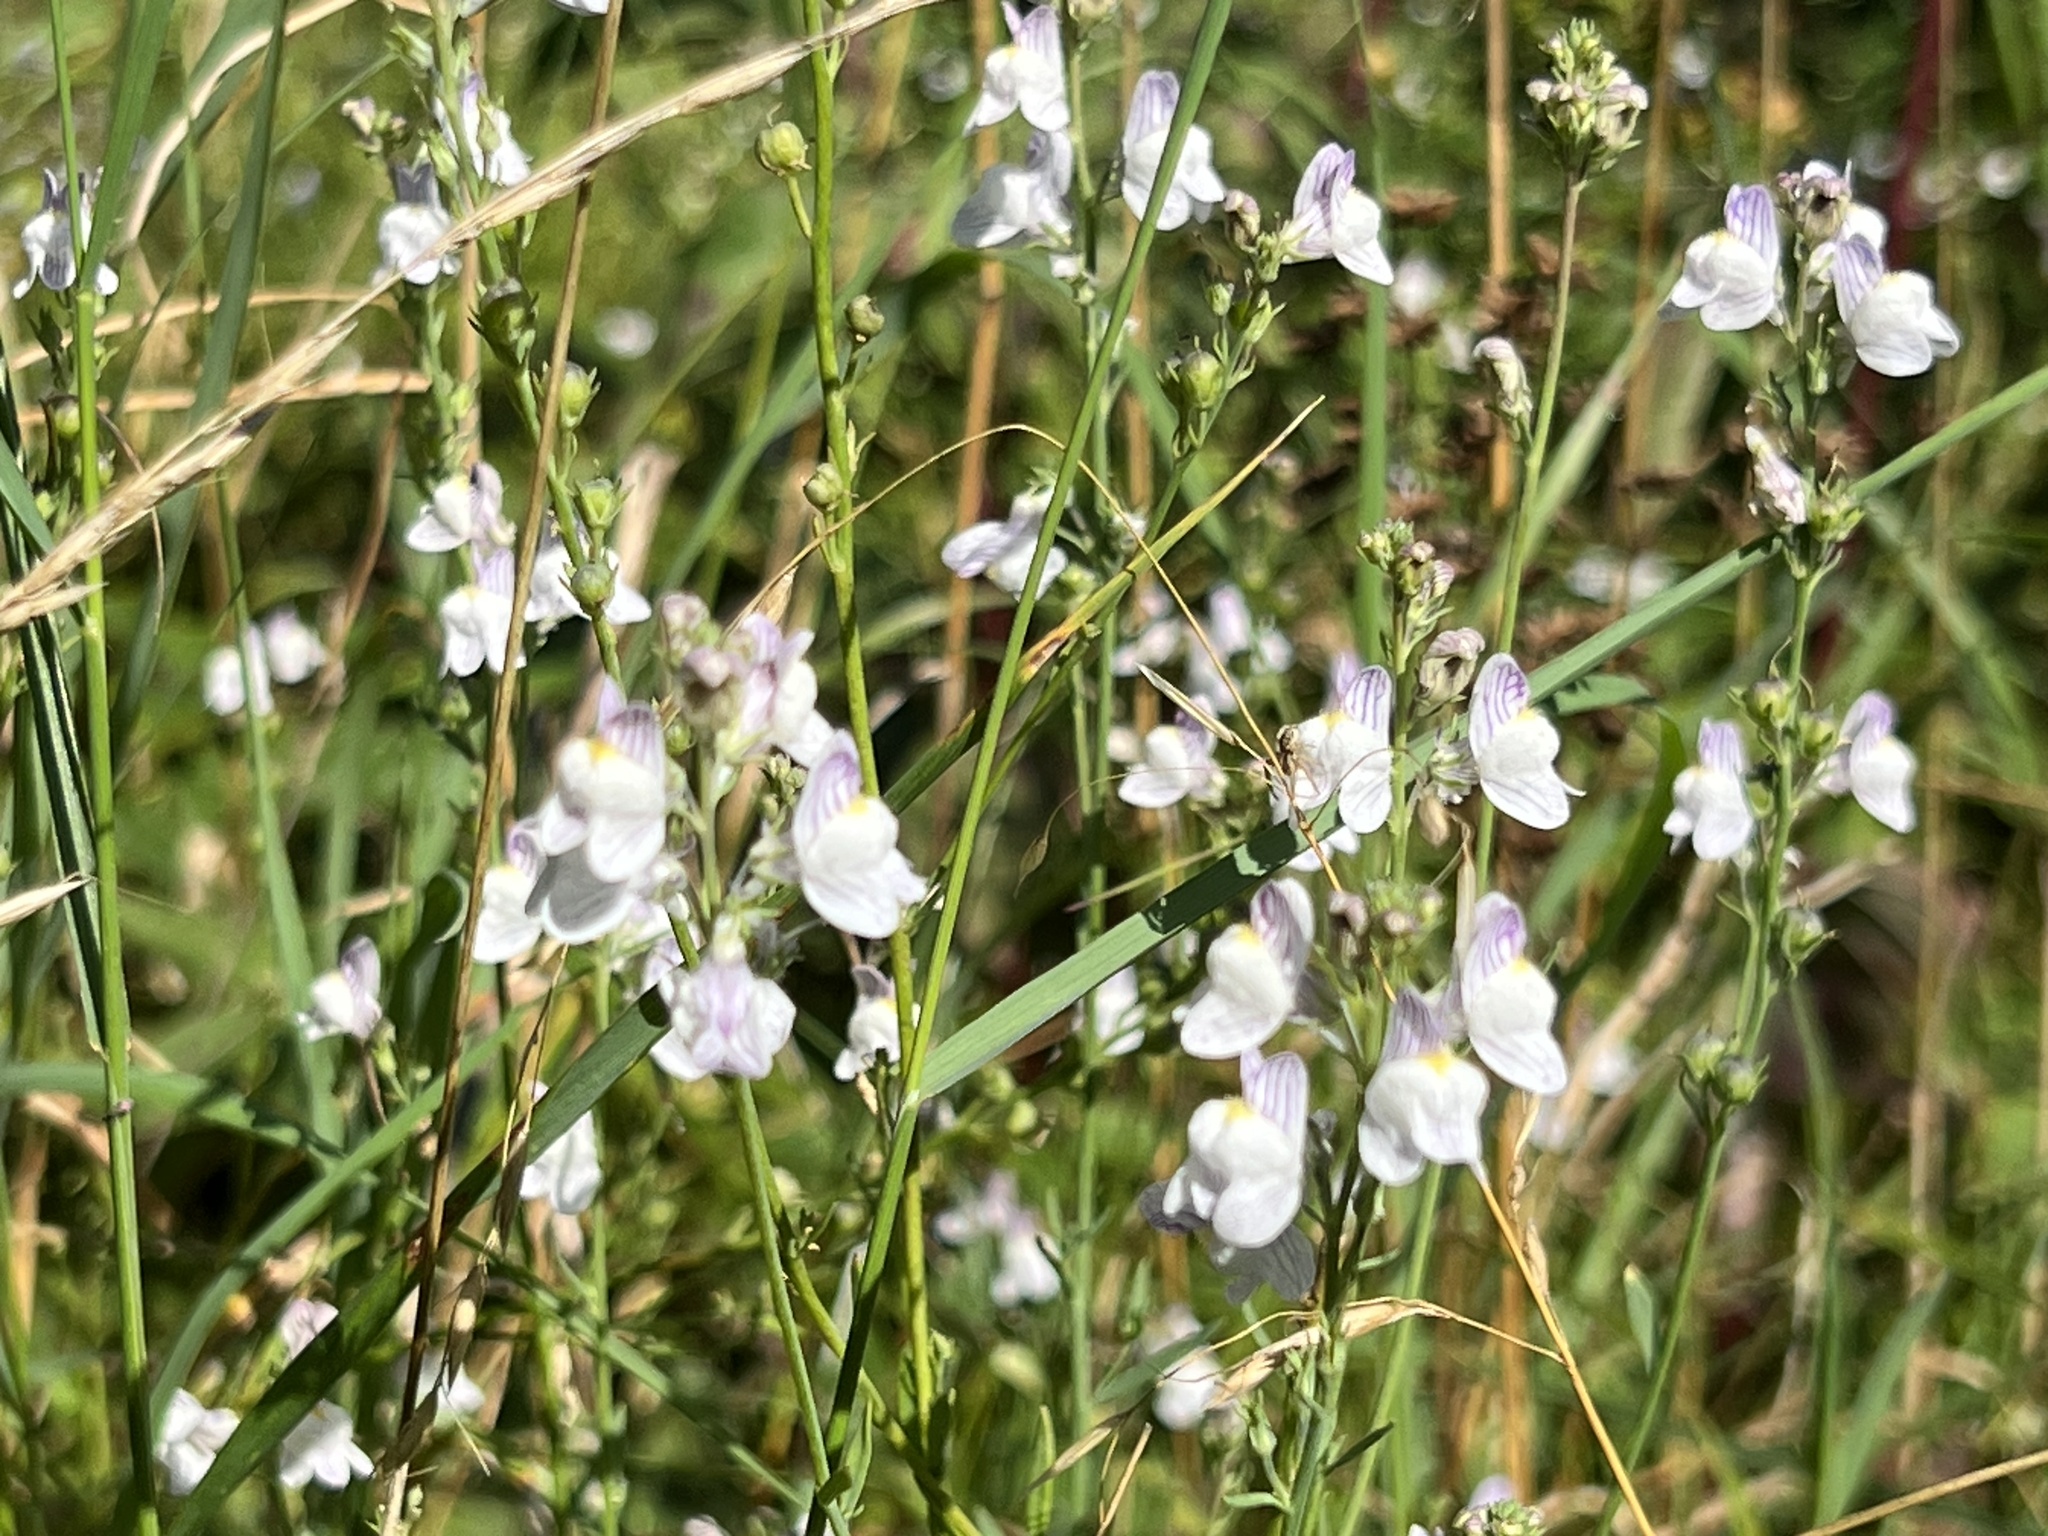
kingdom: Plantae
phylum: Tracheophyta
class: Magnoliopsida
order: Lamiales
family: Plantaginaceae
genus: Linaria
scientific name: Linaria repens
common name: Pale toadflax
